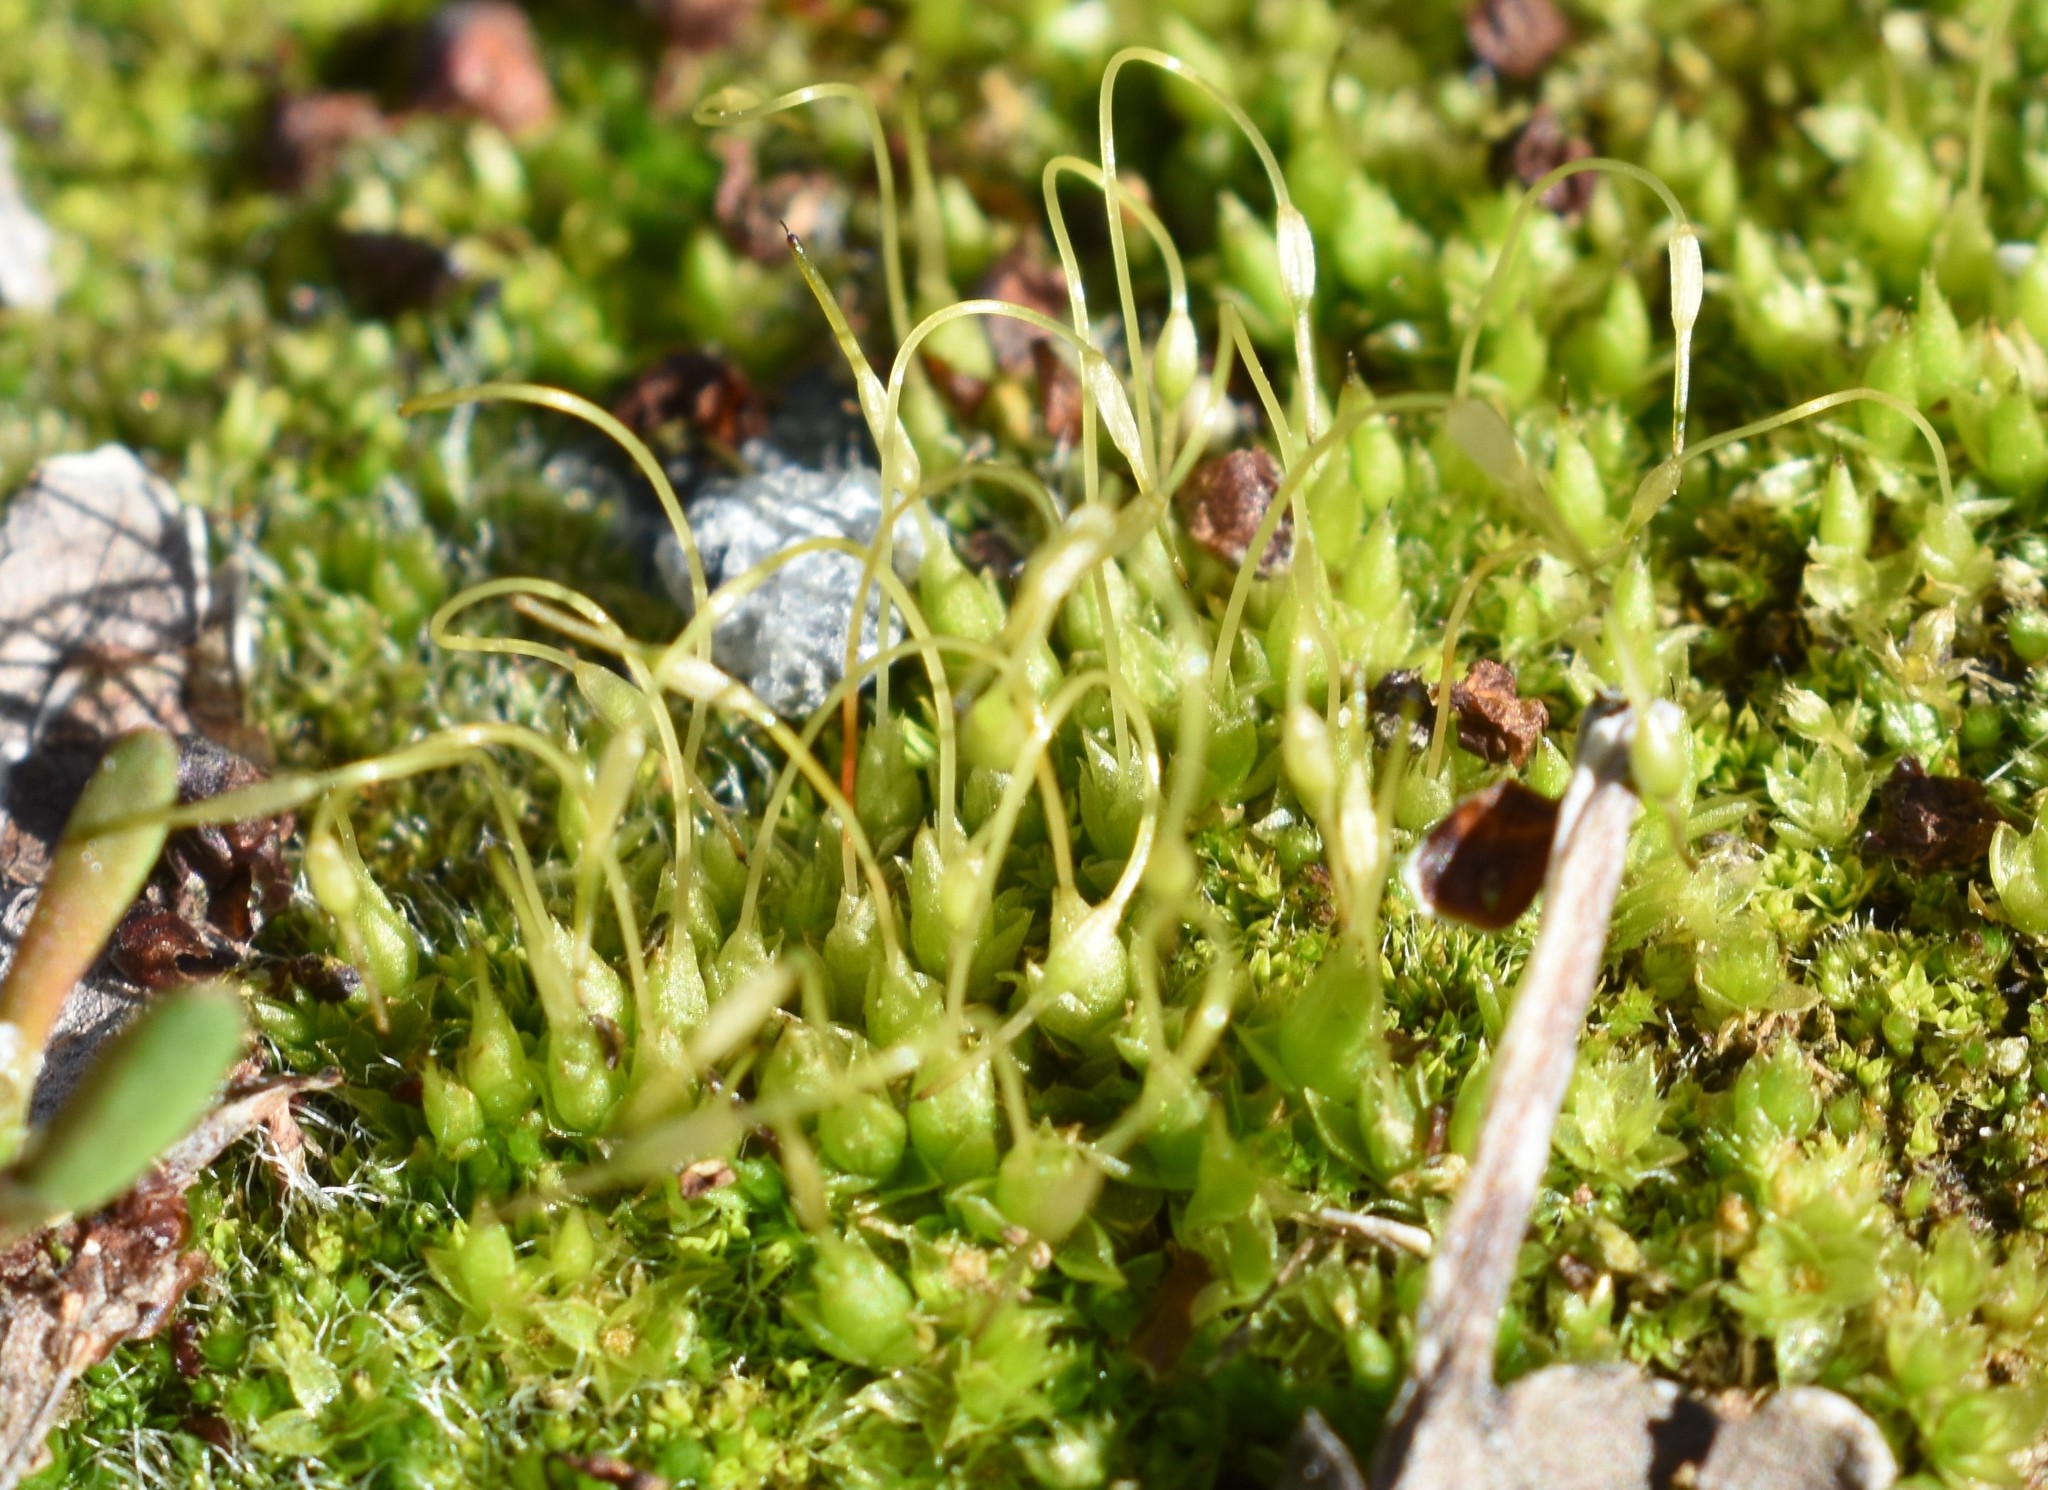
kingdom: Plantae
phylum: Bryophyta
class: Bryopsida
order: Funariales
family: Funariaceae
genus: Funaria
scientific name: Funaria hygrometrica
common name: Common cord moss
